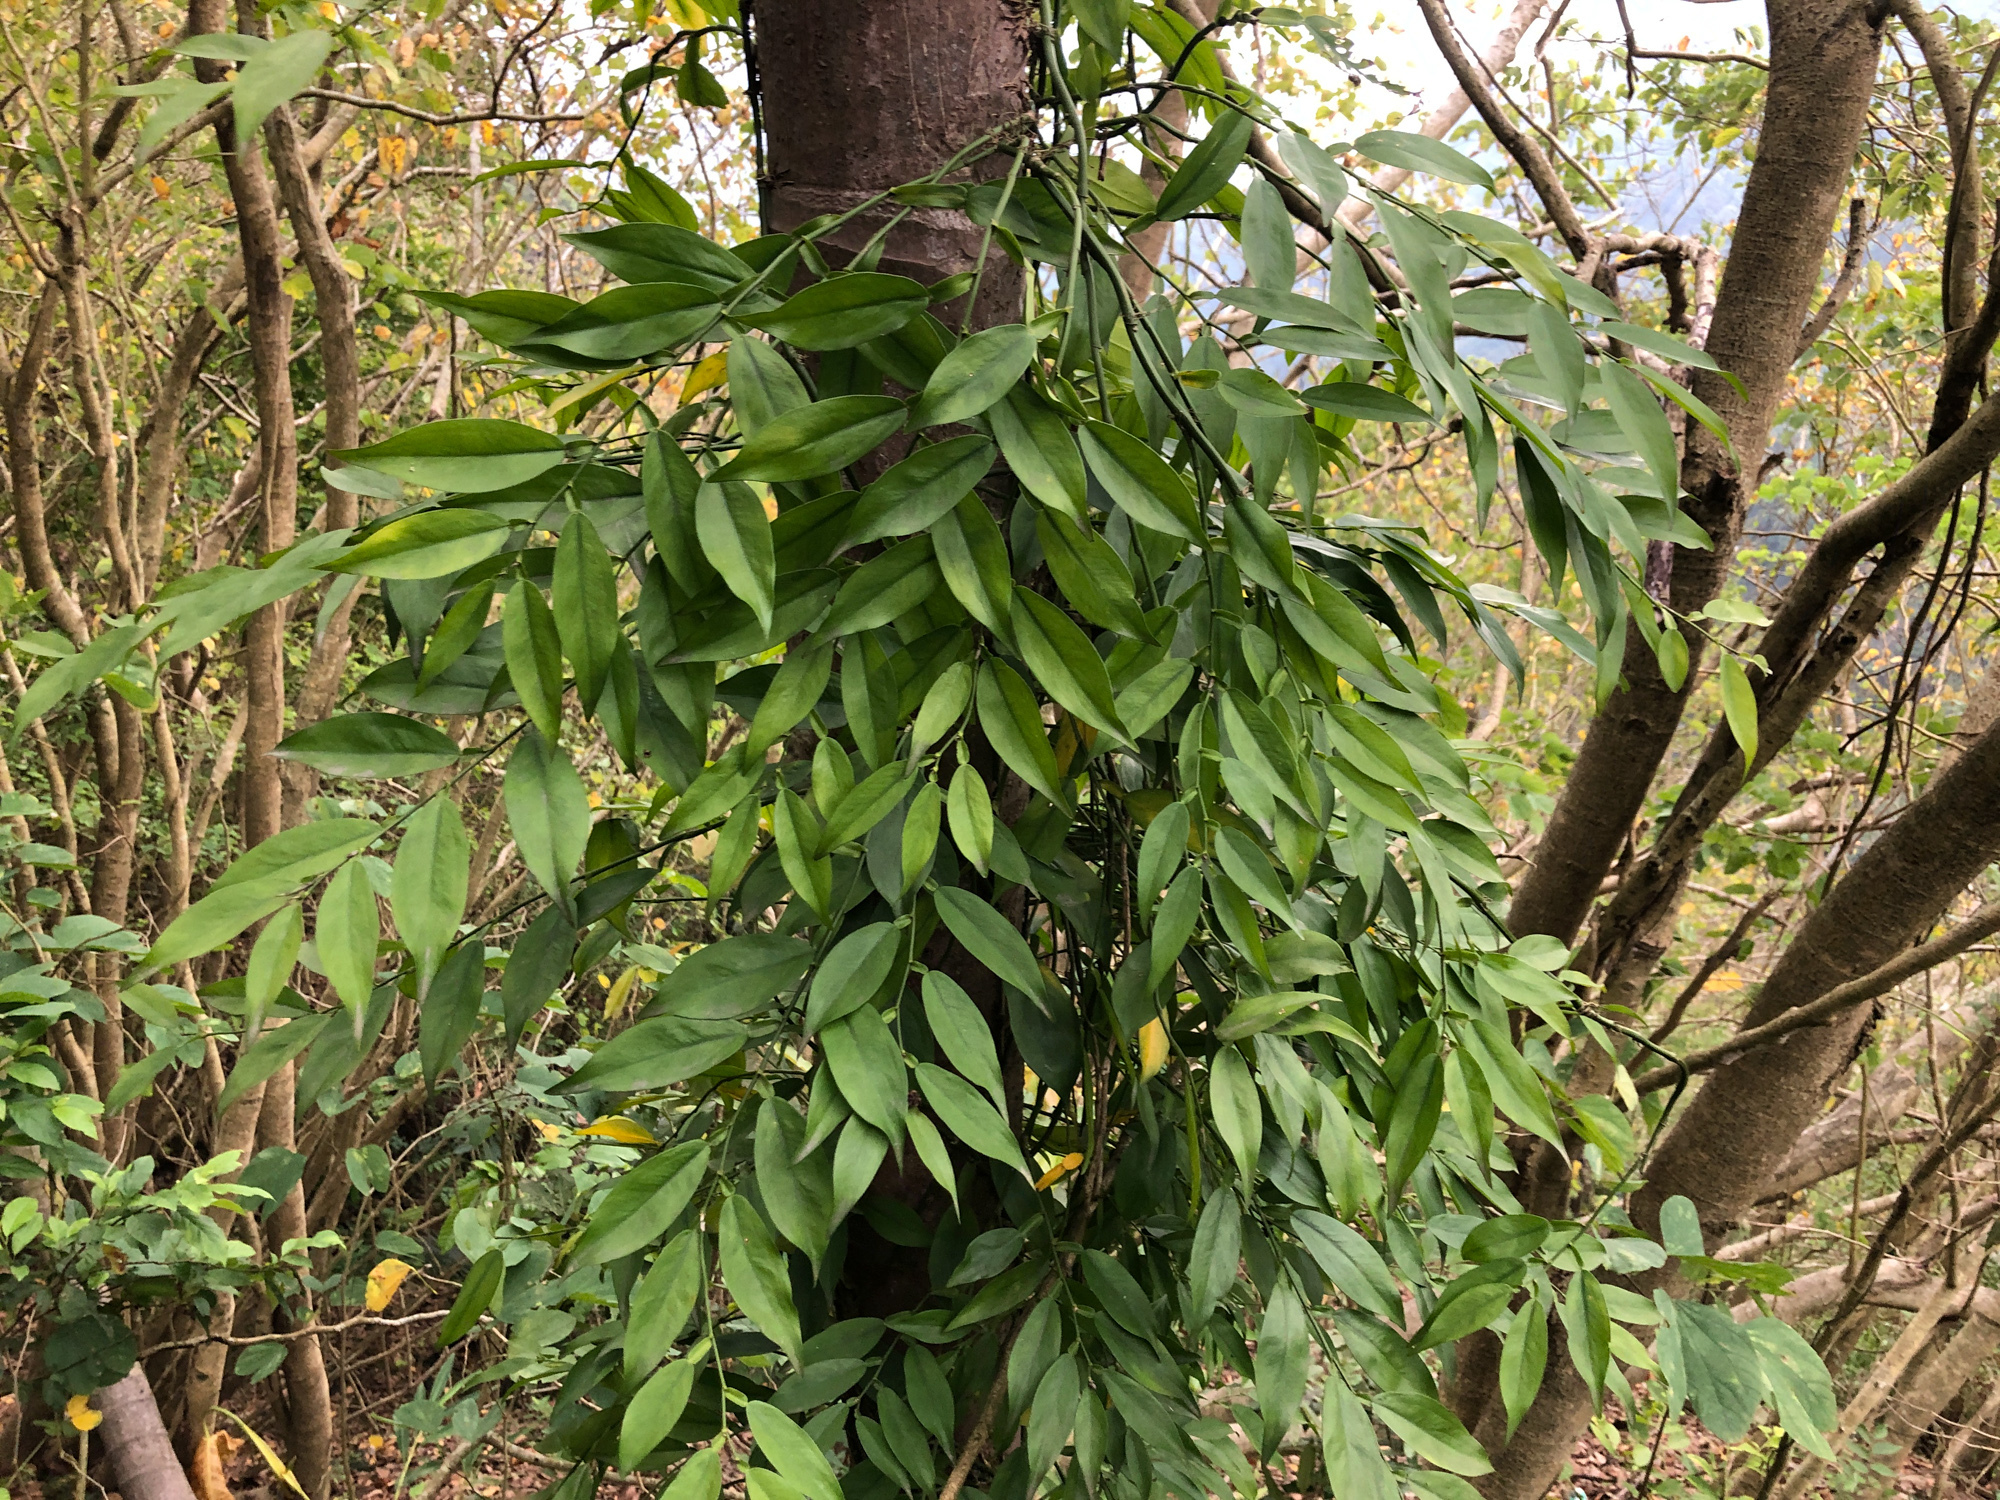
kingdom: Plantae
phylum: Tracheophyta
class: Liliopsida
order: Alismatales
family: Araceae
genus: Pothos
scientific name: Pothos chinensis
